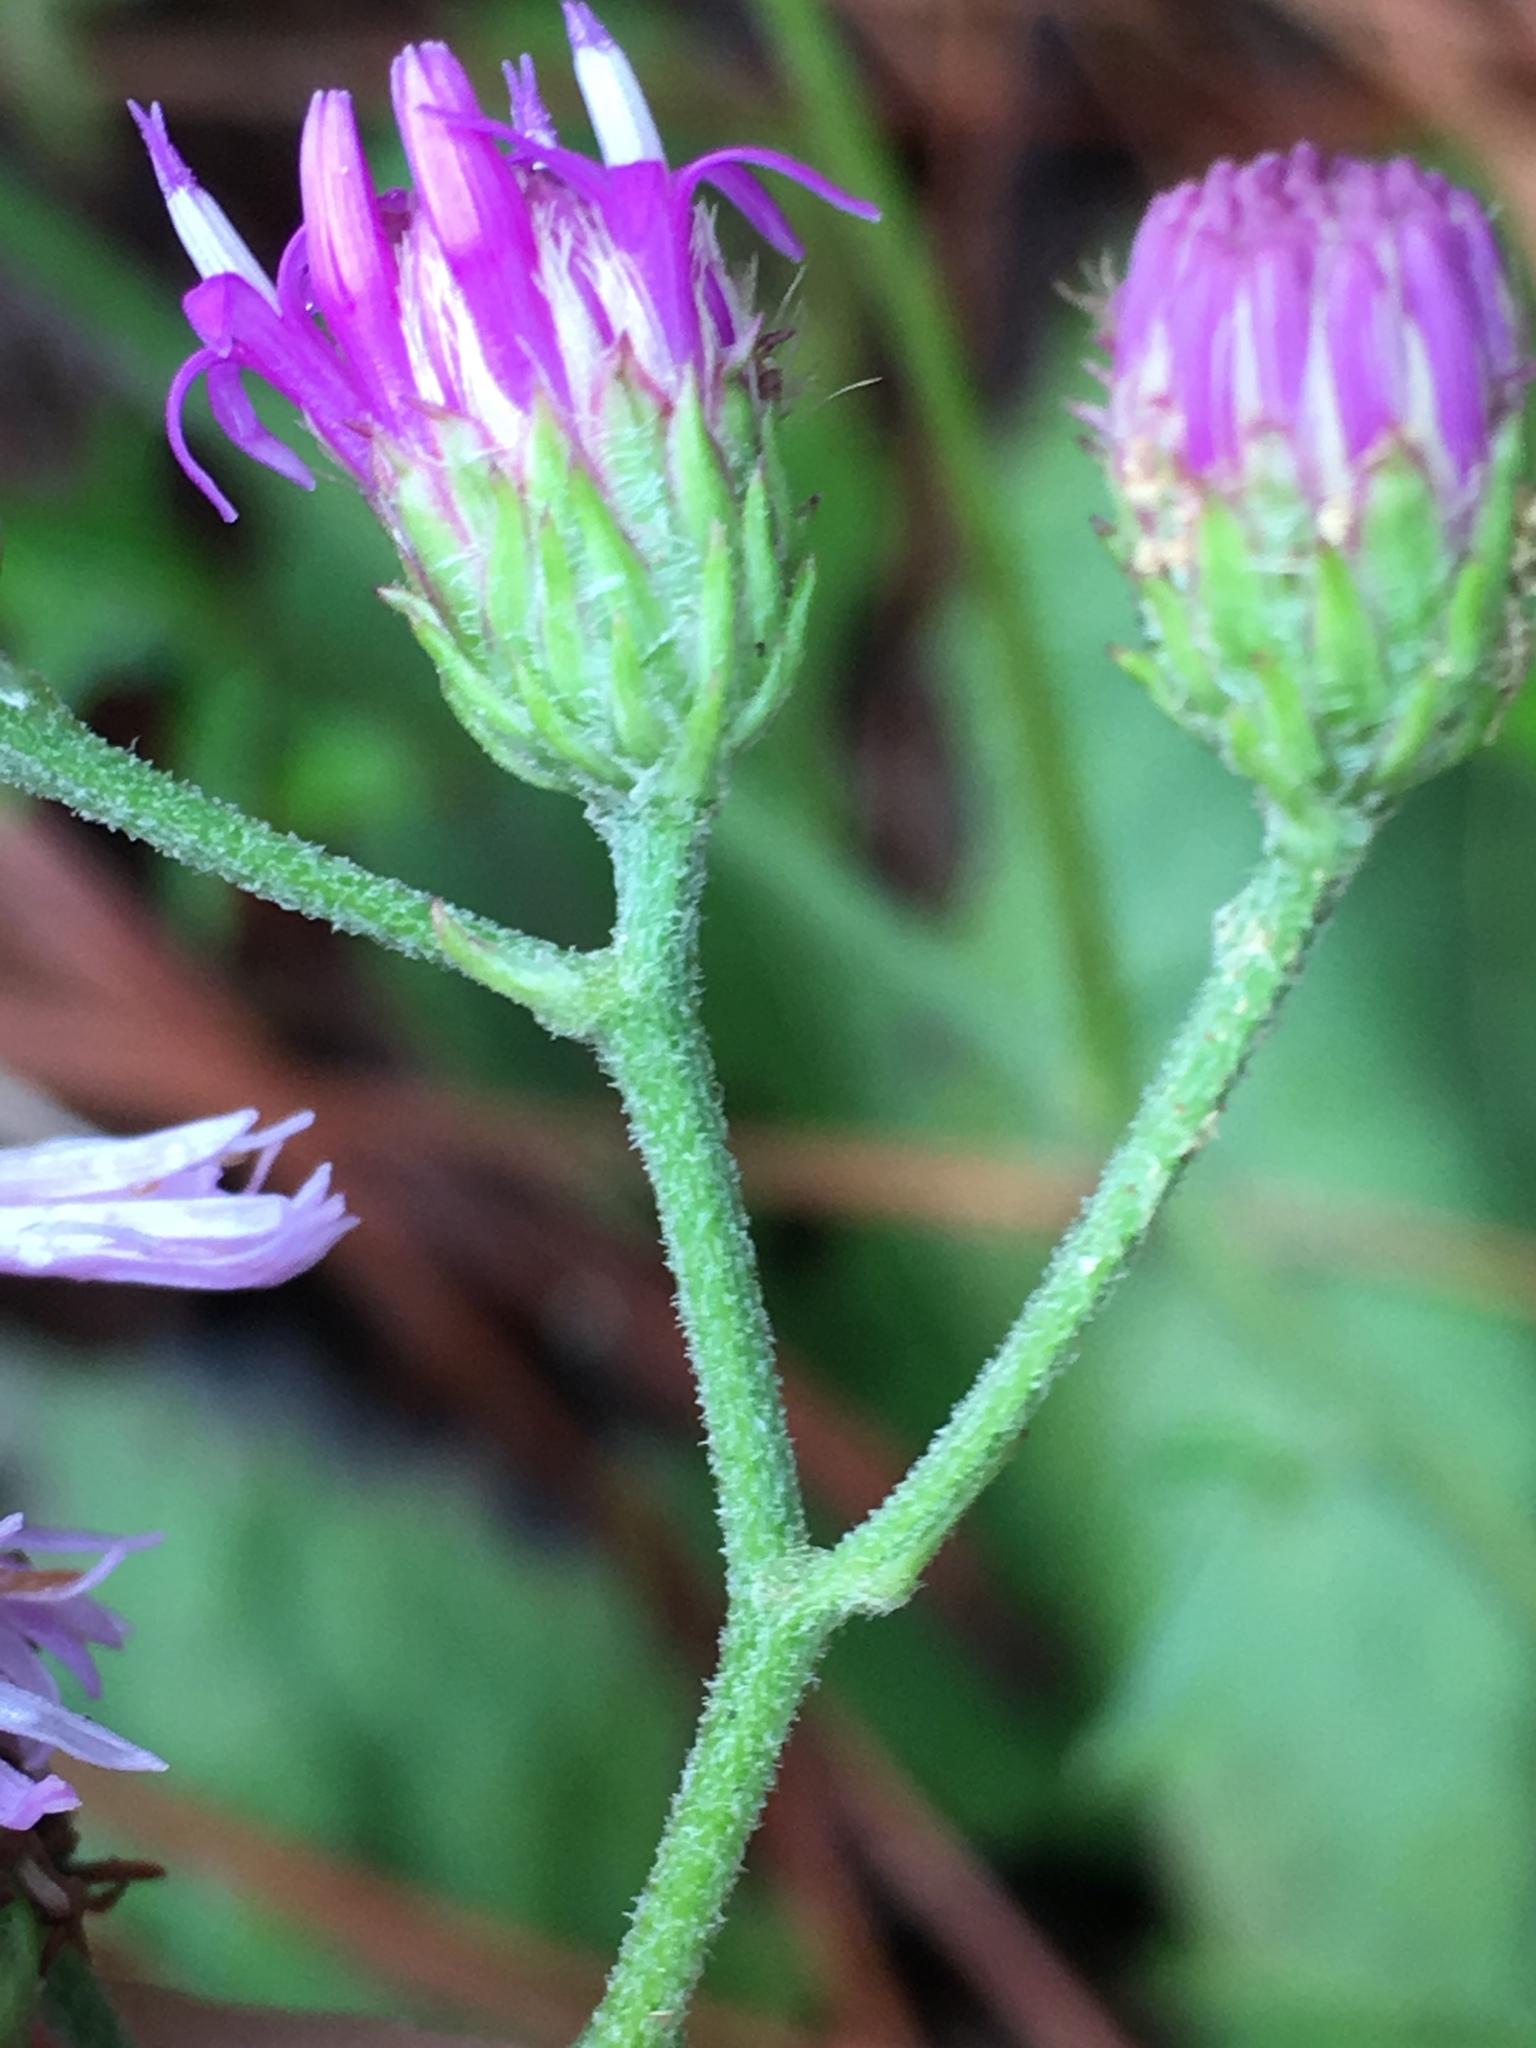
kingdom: Plantae
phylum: Tracheophyta
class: Magnoliopsida
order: Asterales
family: Asteraceae
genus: Vernonia
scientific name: Vernonia acaulis
